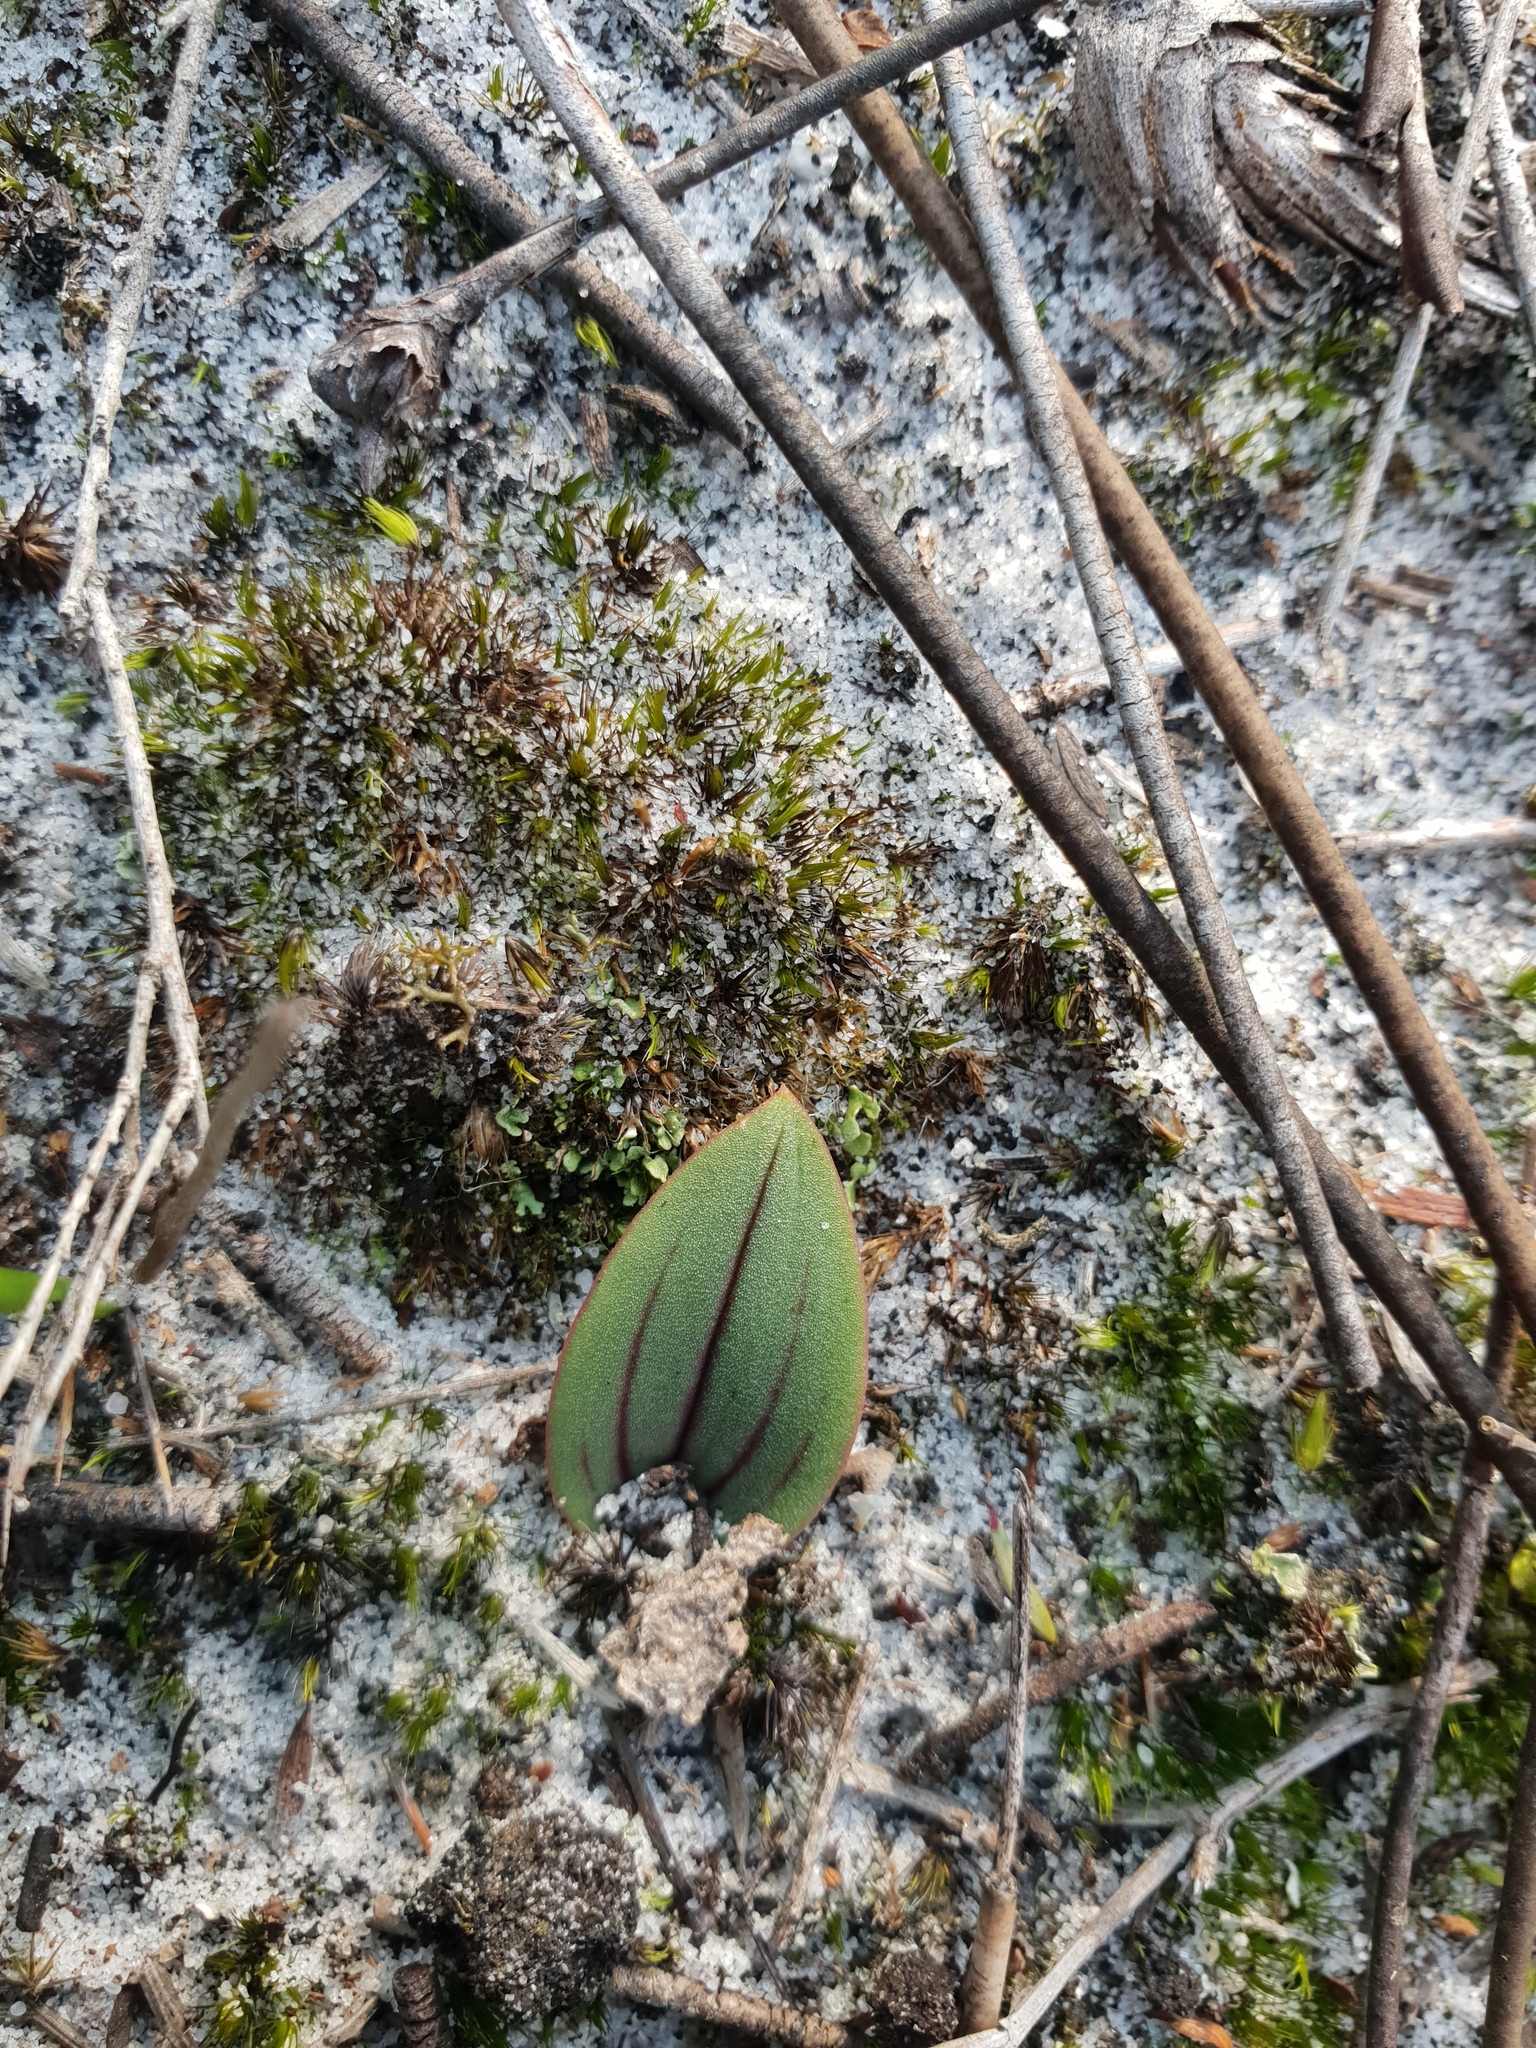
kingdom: Plantae
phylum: Tracheophyta
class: Liliopsida
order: Asparagales
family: Orchidaceae
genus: Leporella
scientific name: Leporella fimbriata
